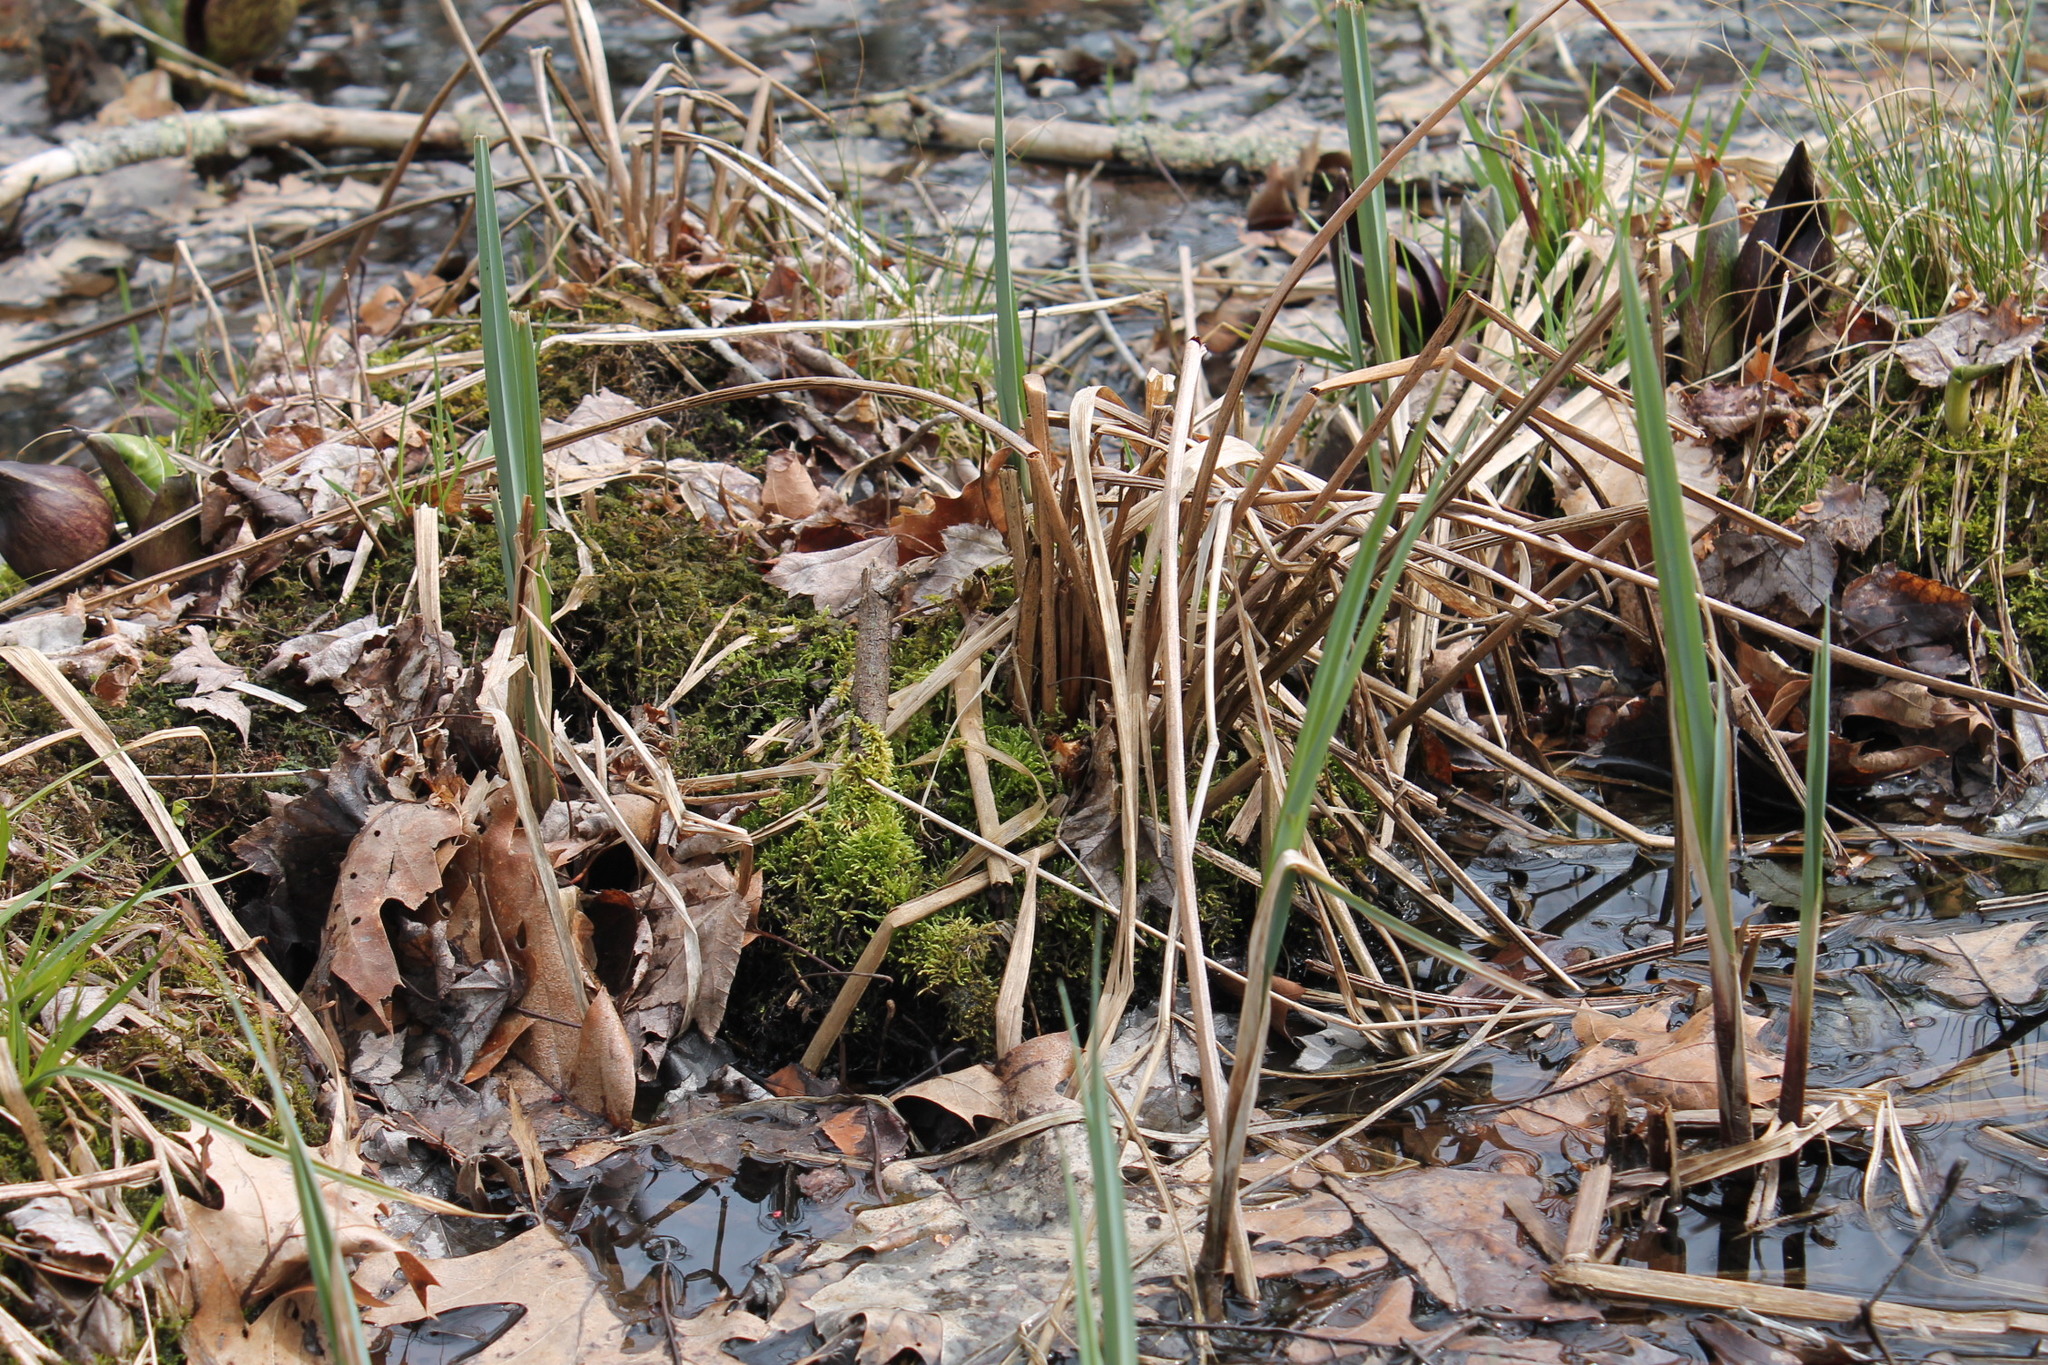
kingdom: Plantae
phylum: Tracheophyta
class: Liliopsida
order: Poales
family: Typhaceae
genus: Typha
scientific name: Typha
